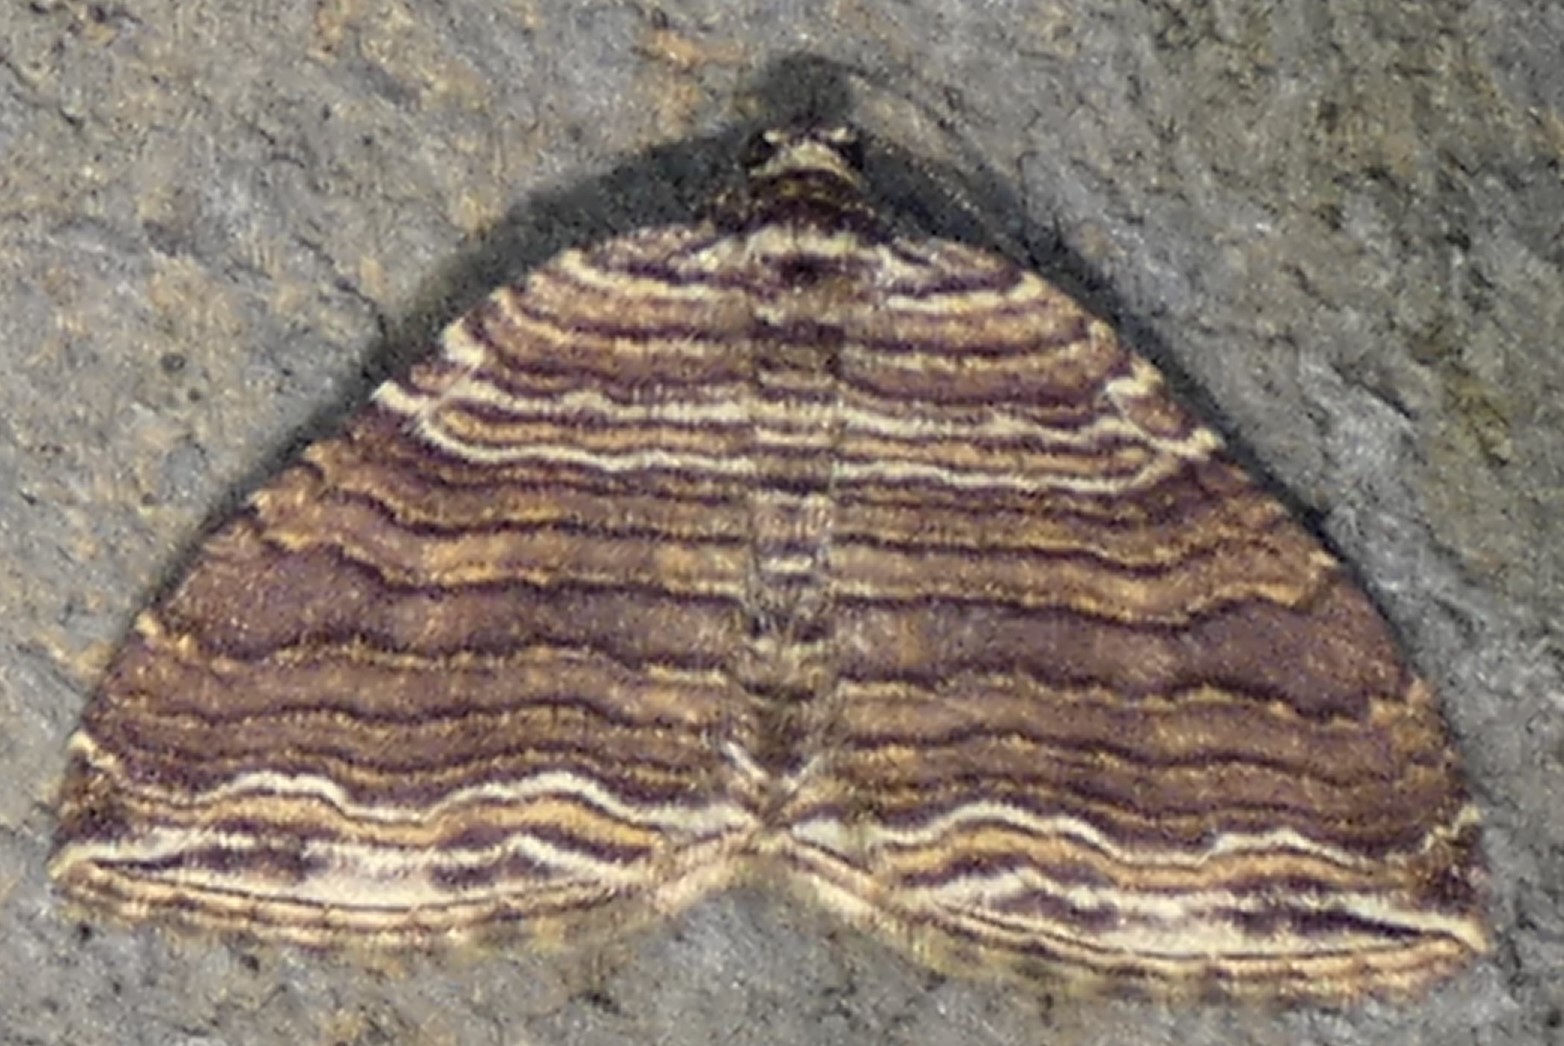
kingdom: Animalia
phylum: Arthropoda
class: Insecta
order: Lepidoptera
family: Geometridae
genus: Anticlea
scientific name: Anticlea multiferata
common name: Many-lined carpet
